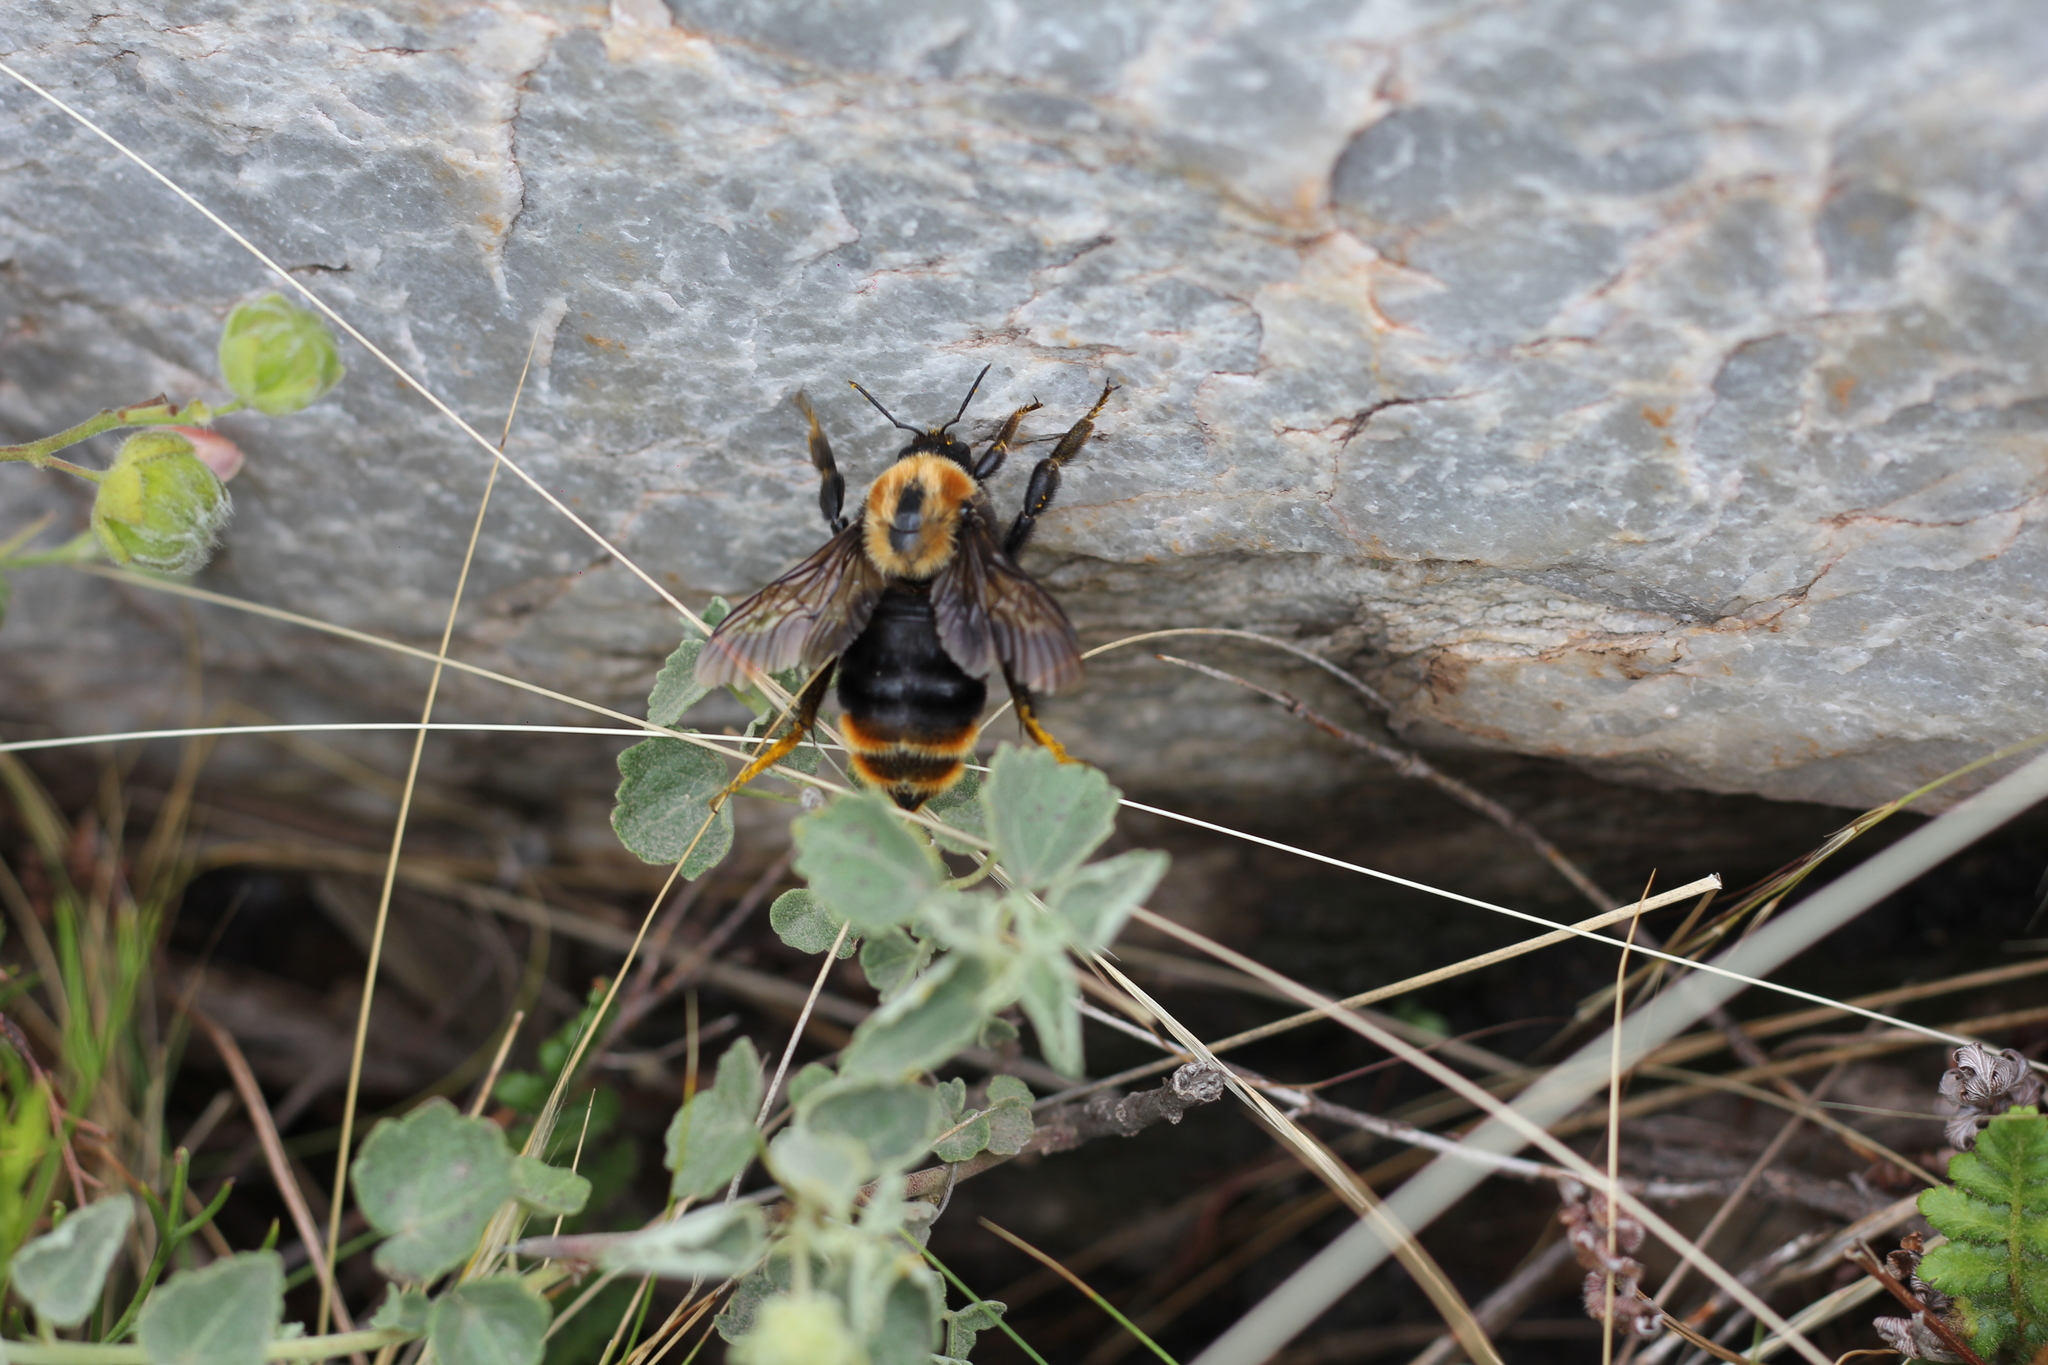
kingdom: Animalia
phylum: Arthropoda
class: Insecta
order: Hymenoptera
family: Apidae
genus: Bombus
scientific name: Bombus bellicosus
